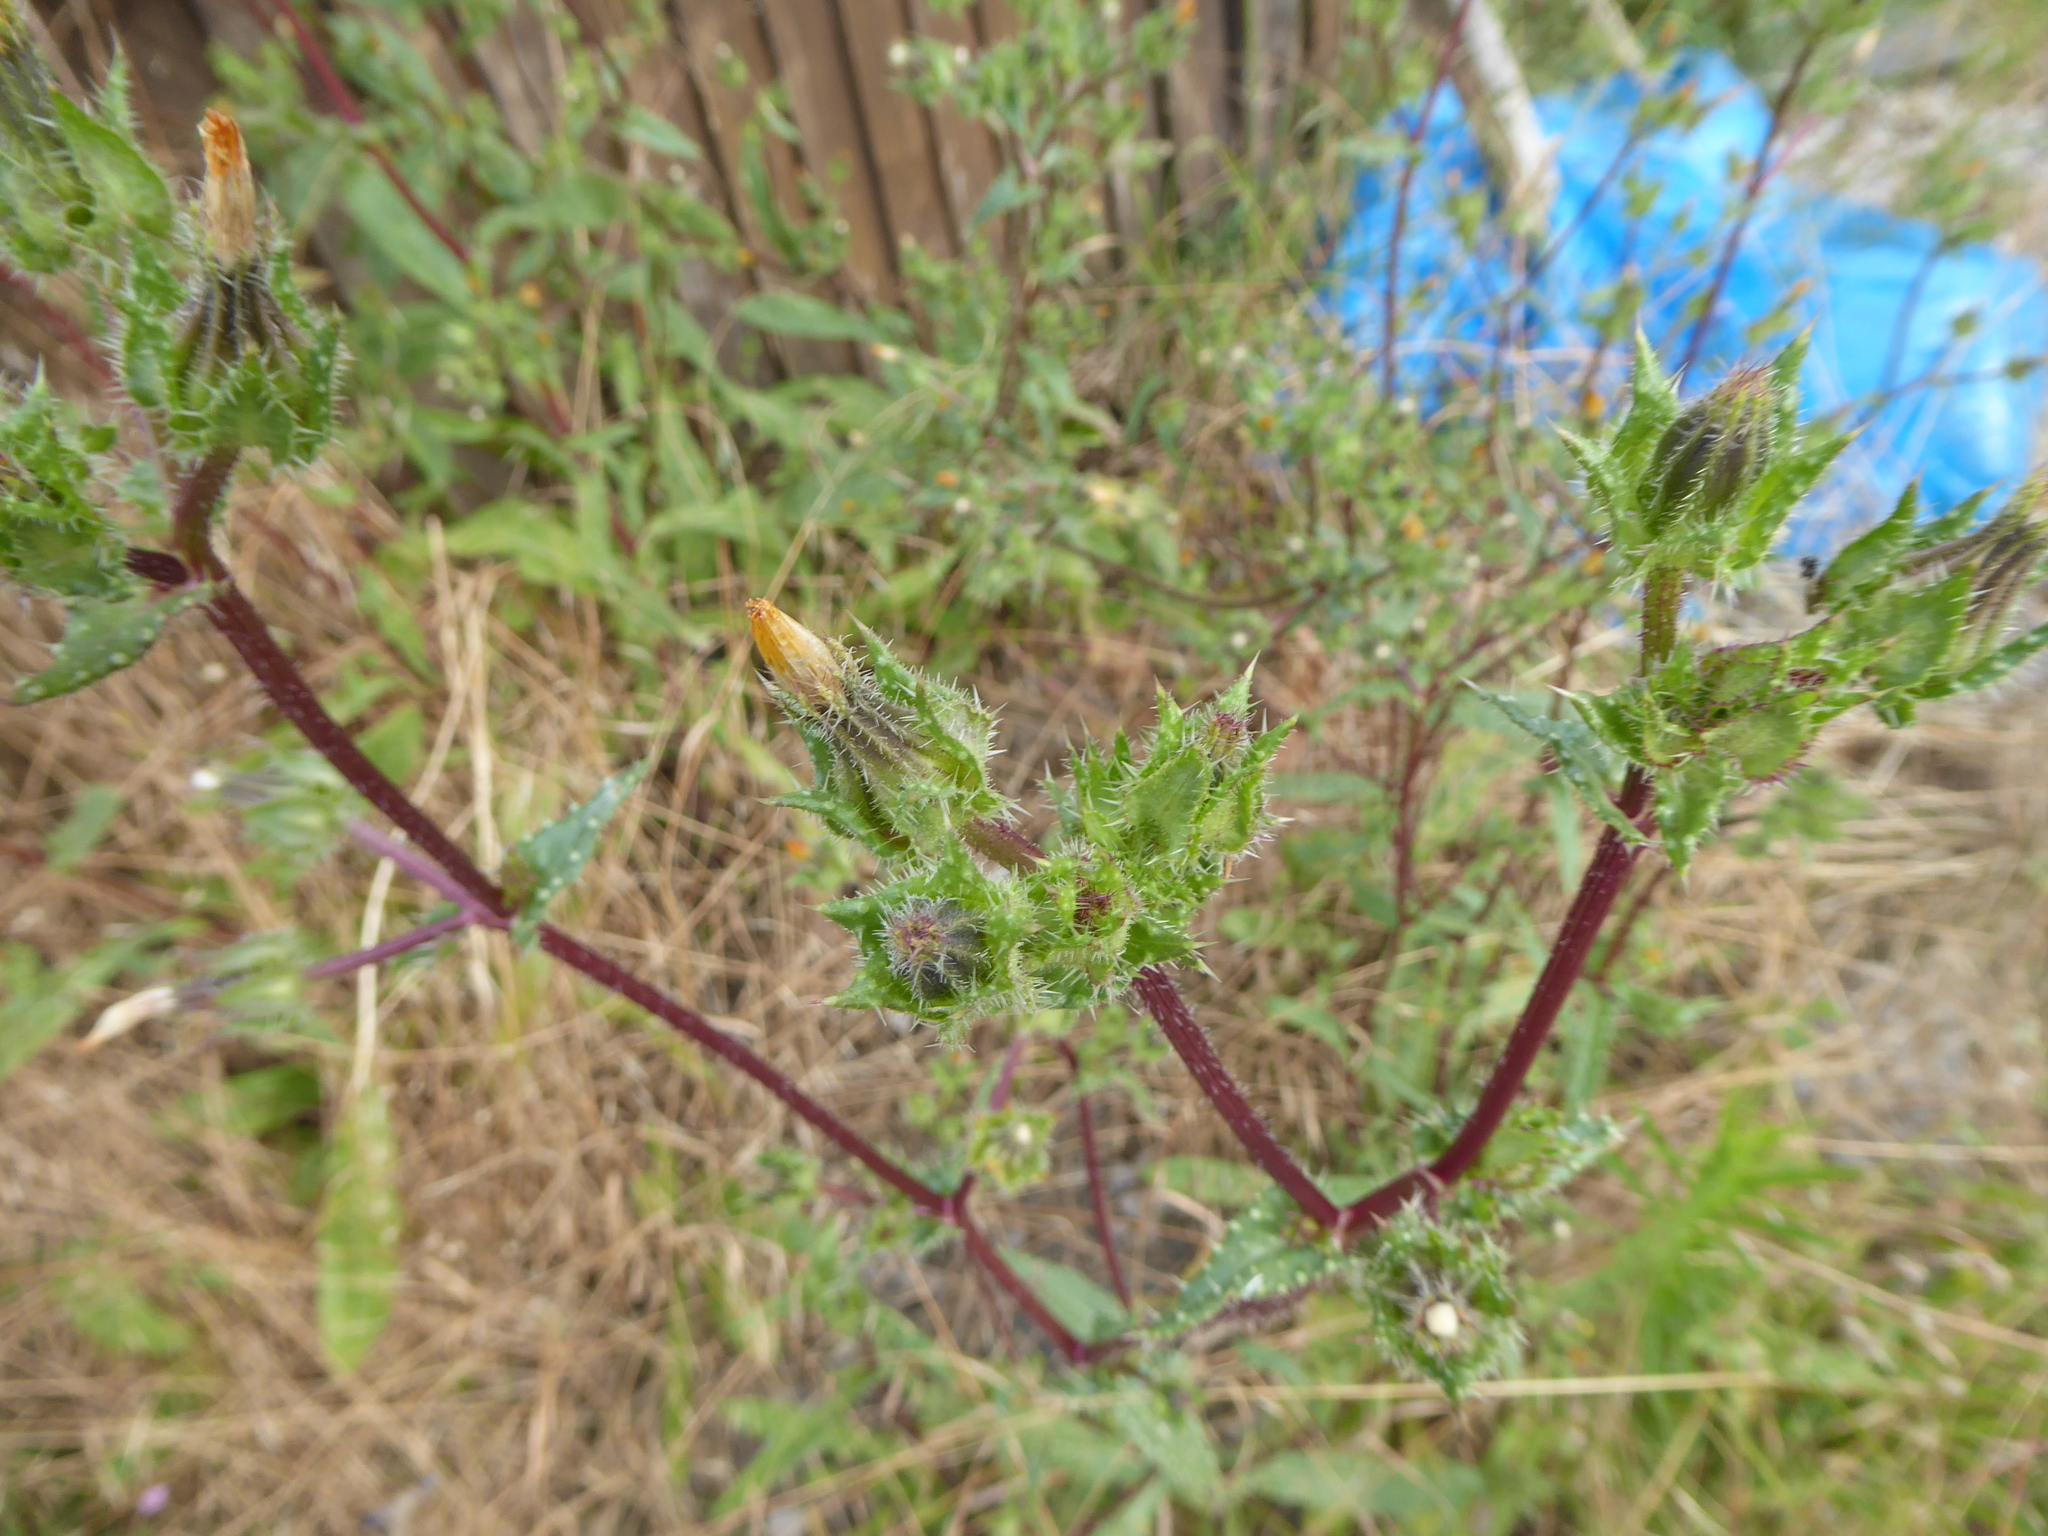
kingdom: Plantae
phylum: Tracheophyta
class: Magnoliopsida
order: Asterales
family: Asteraceae
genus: Helminthotheca
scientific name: Helminthotheca echioides
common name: Ox-tongue
